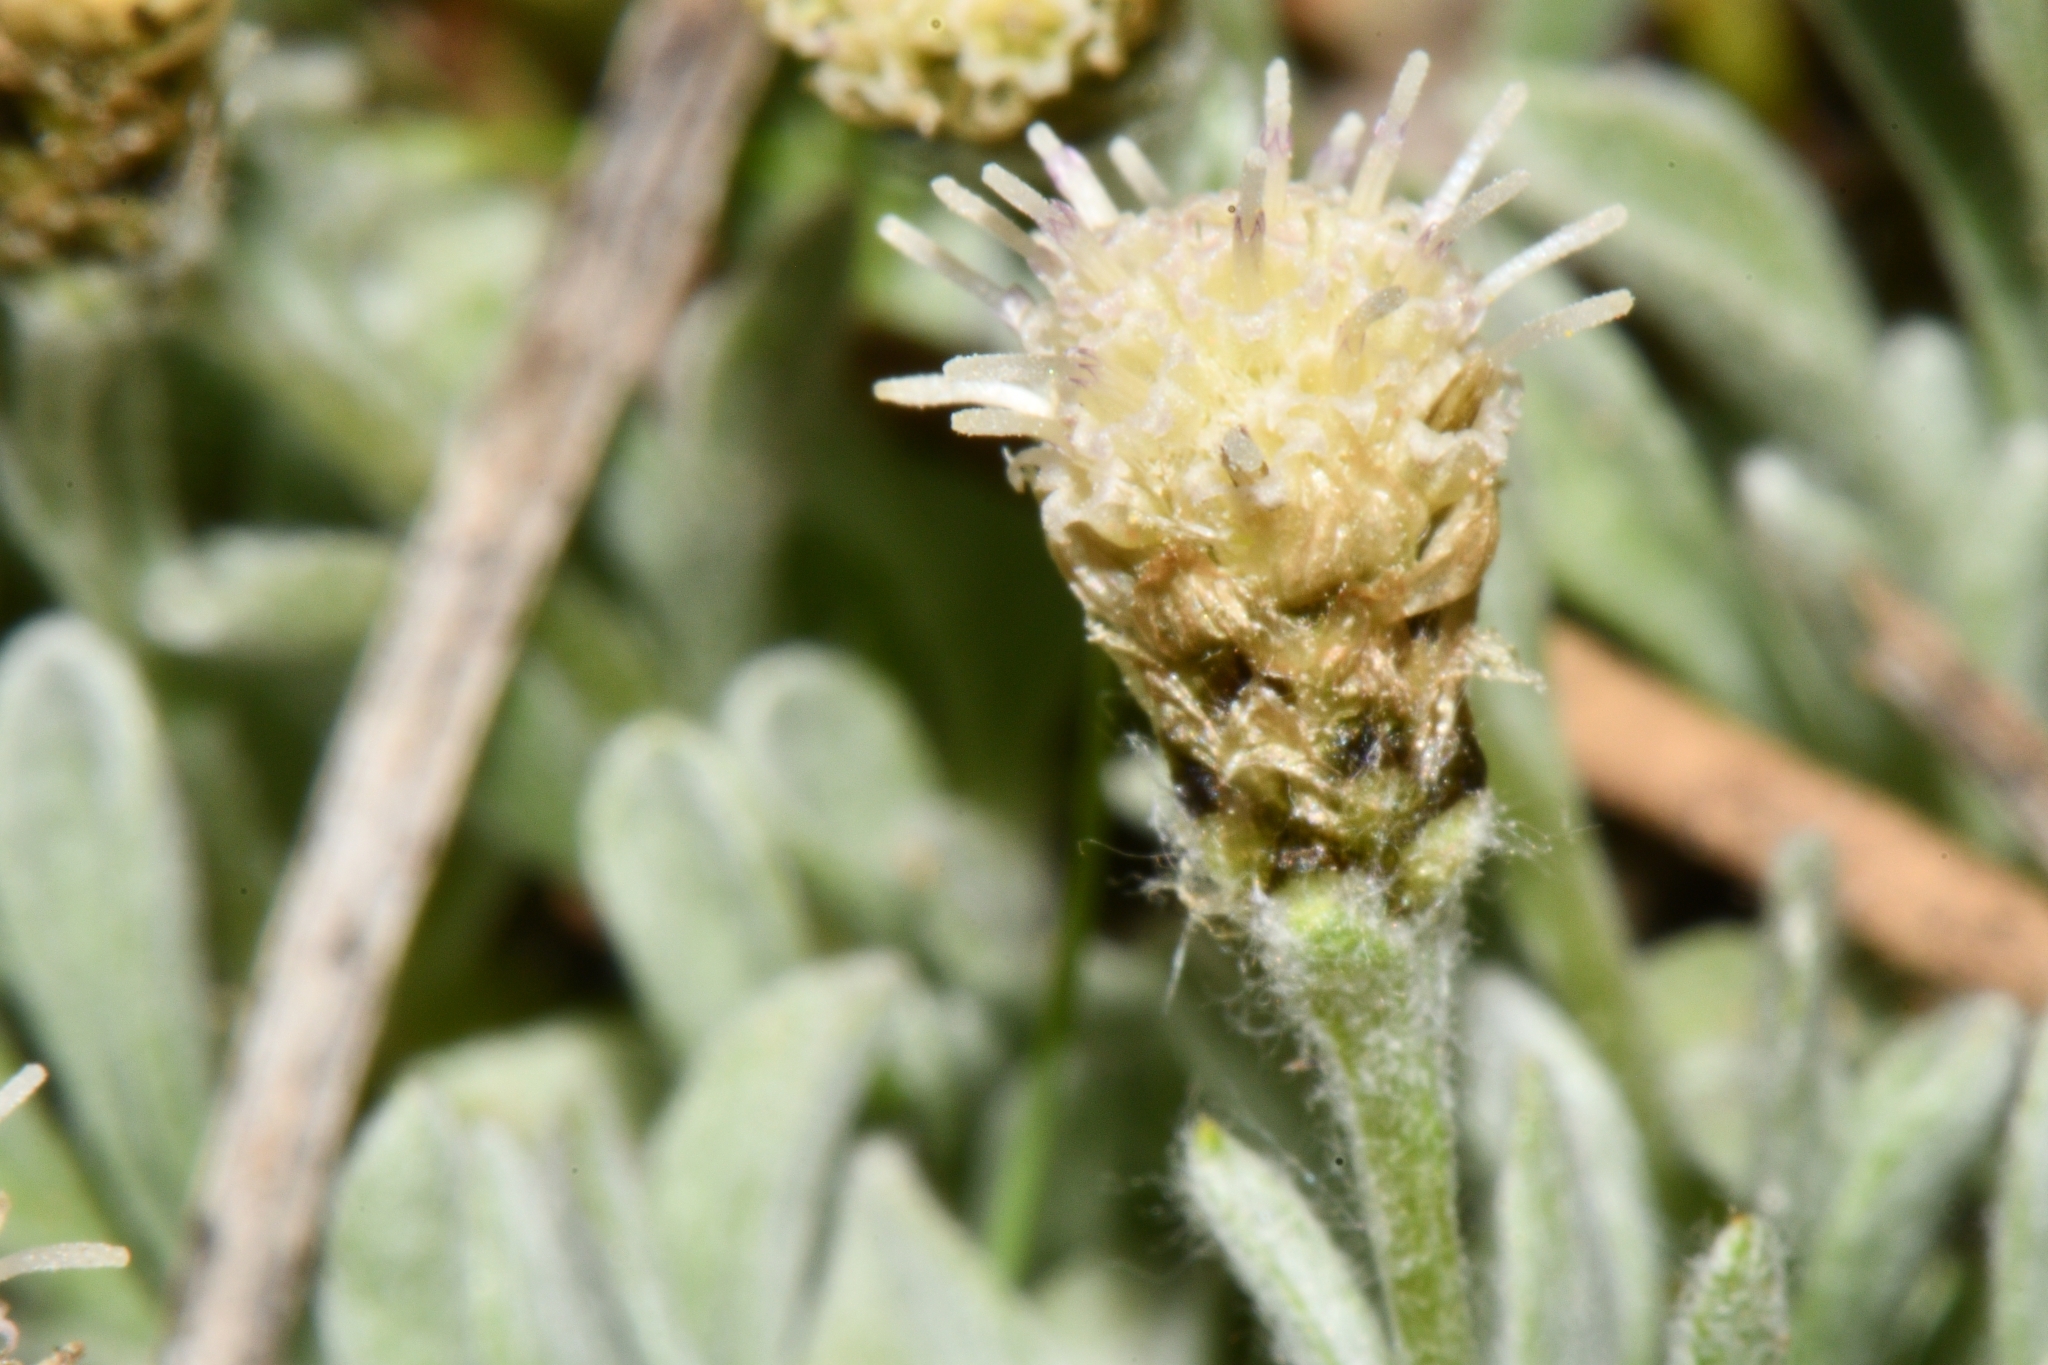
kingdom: Plantae
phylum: Tracheophyta
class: Magnoliopsida
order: Asterales
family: Asteraceae
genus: Antennaria
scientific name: Antennaria dimorpha
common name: Cushion pussytoes
